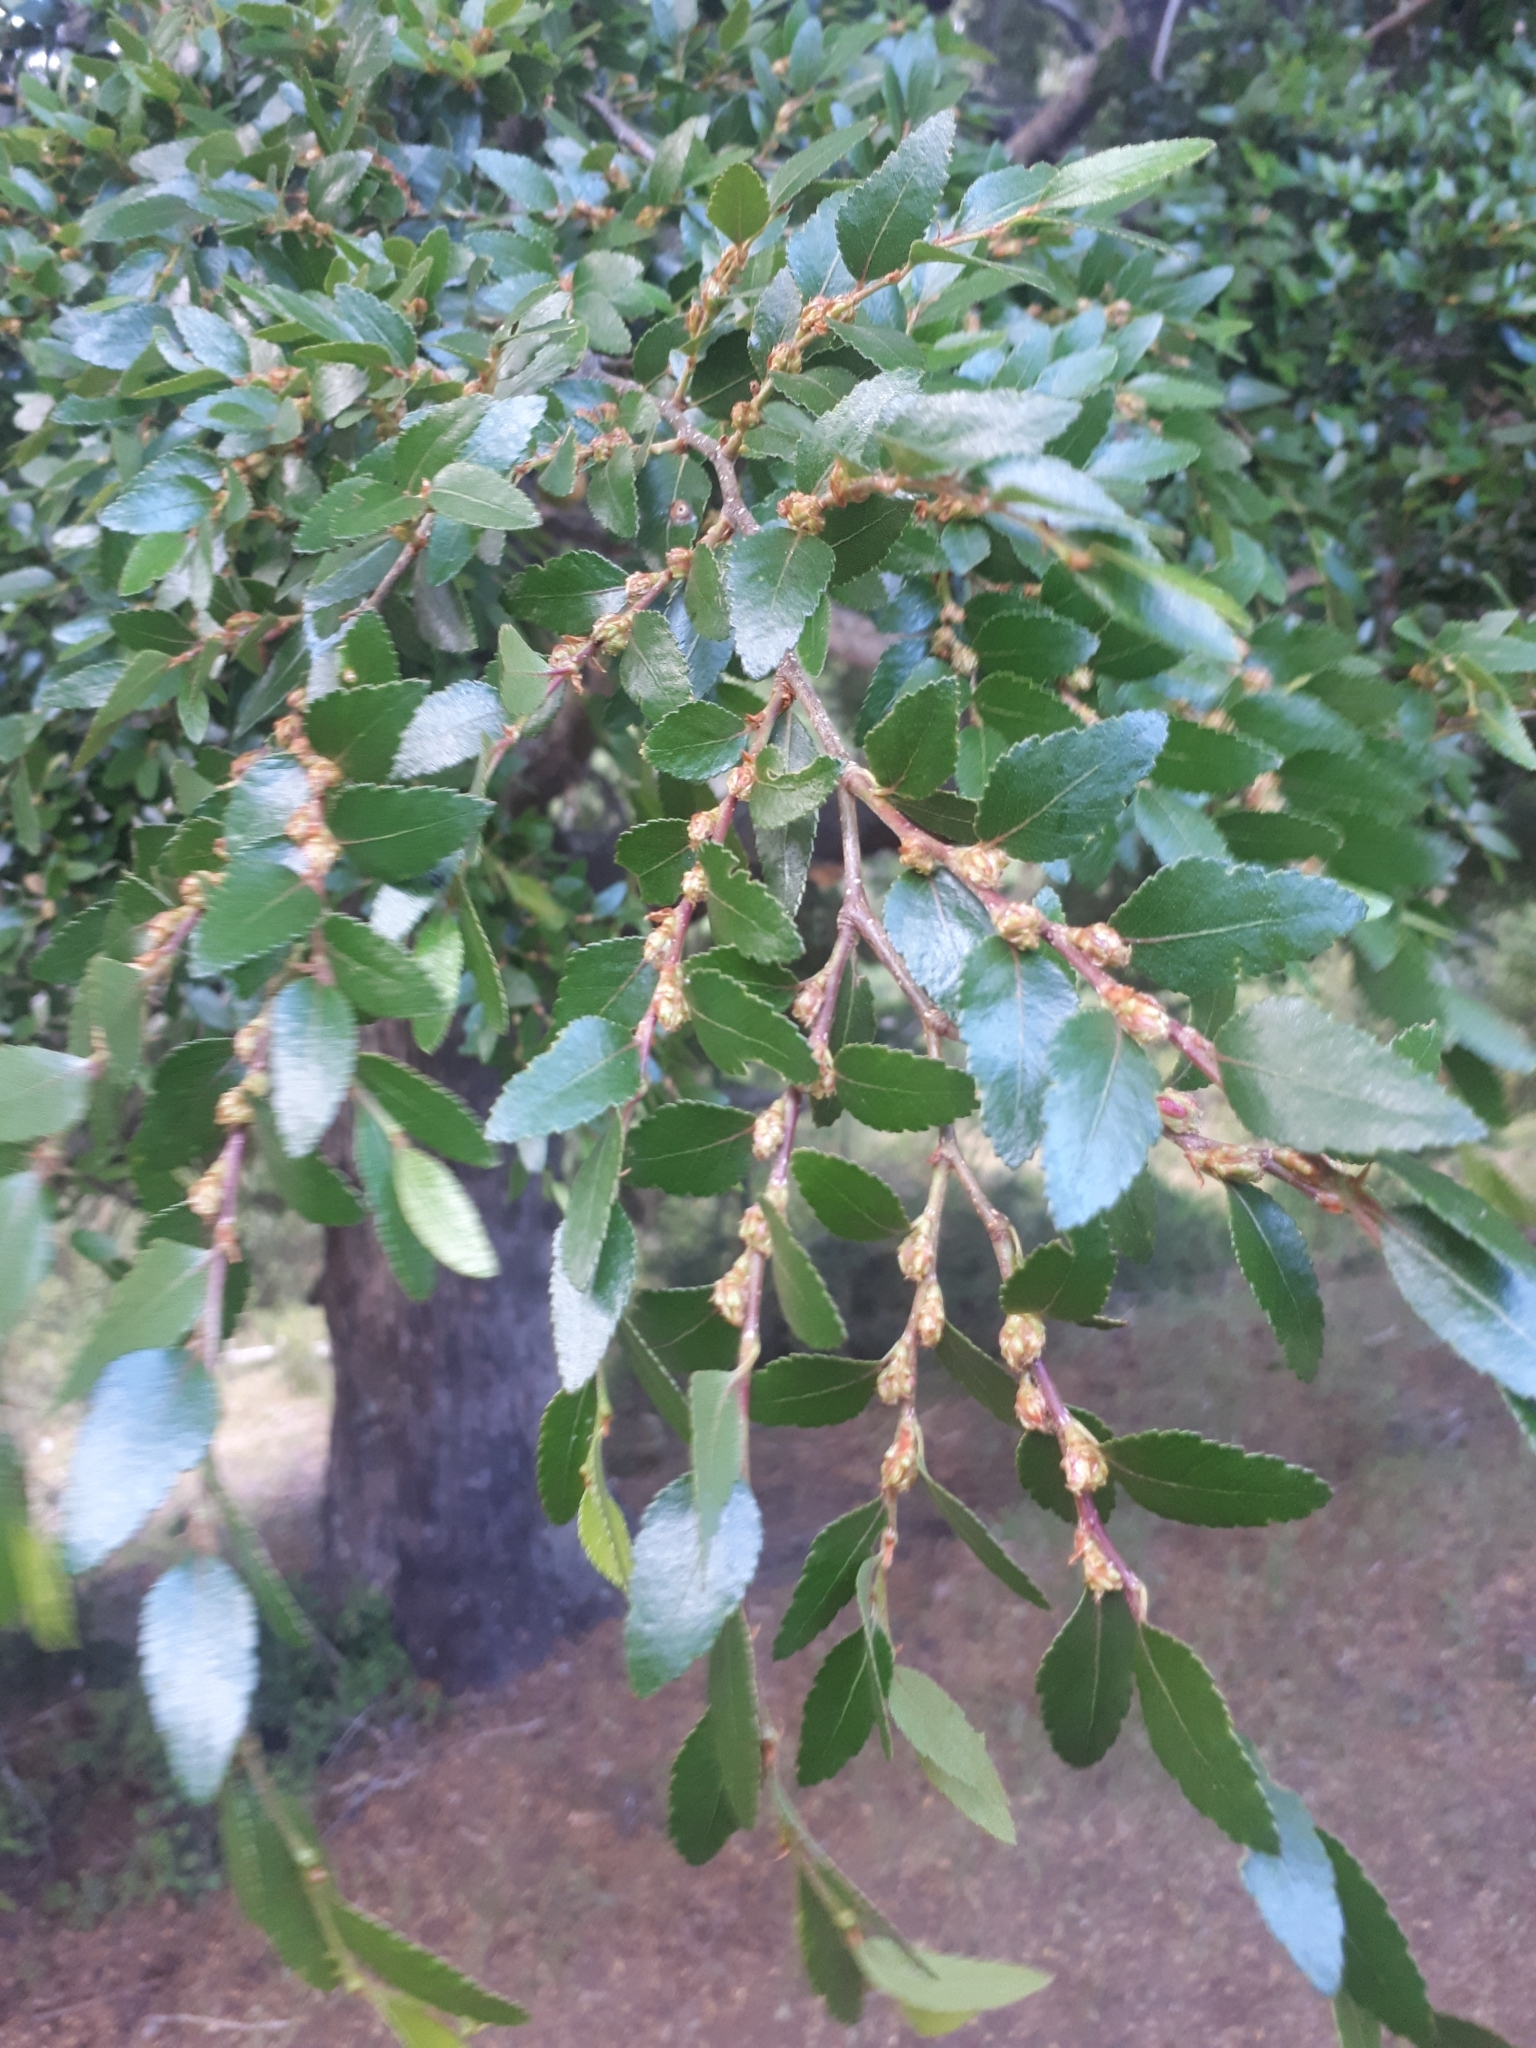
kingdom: Plantae
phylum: Tracheophyta
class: Magnoliopsida
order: Fagales
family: Nothofagaceae
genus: Nothofagus
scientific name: Nothofagus dombeyi
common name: Coigue
